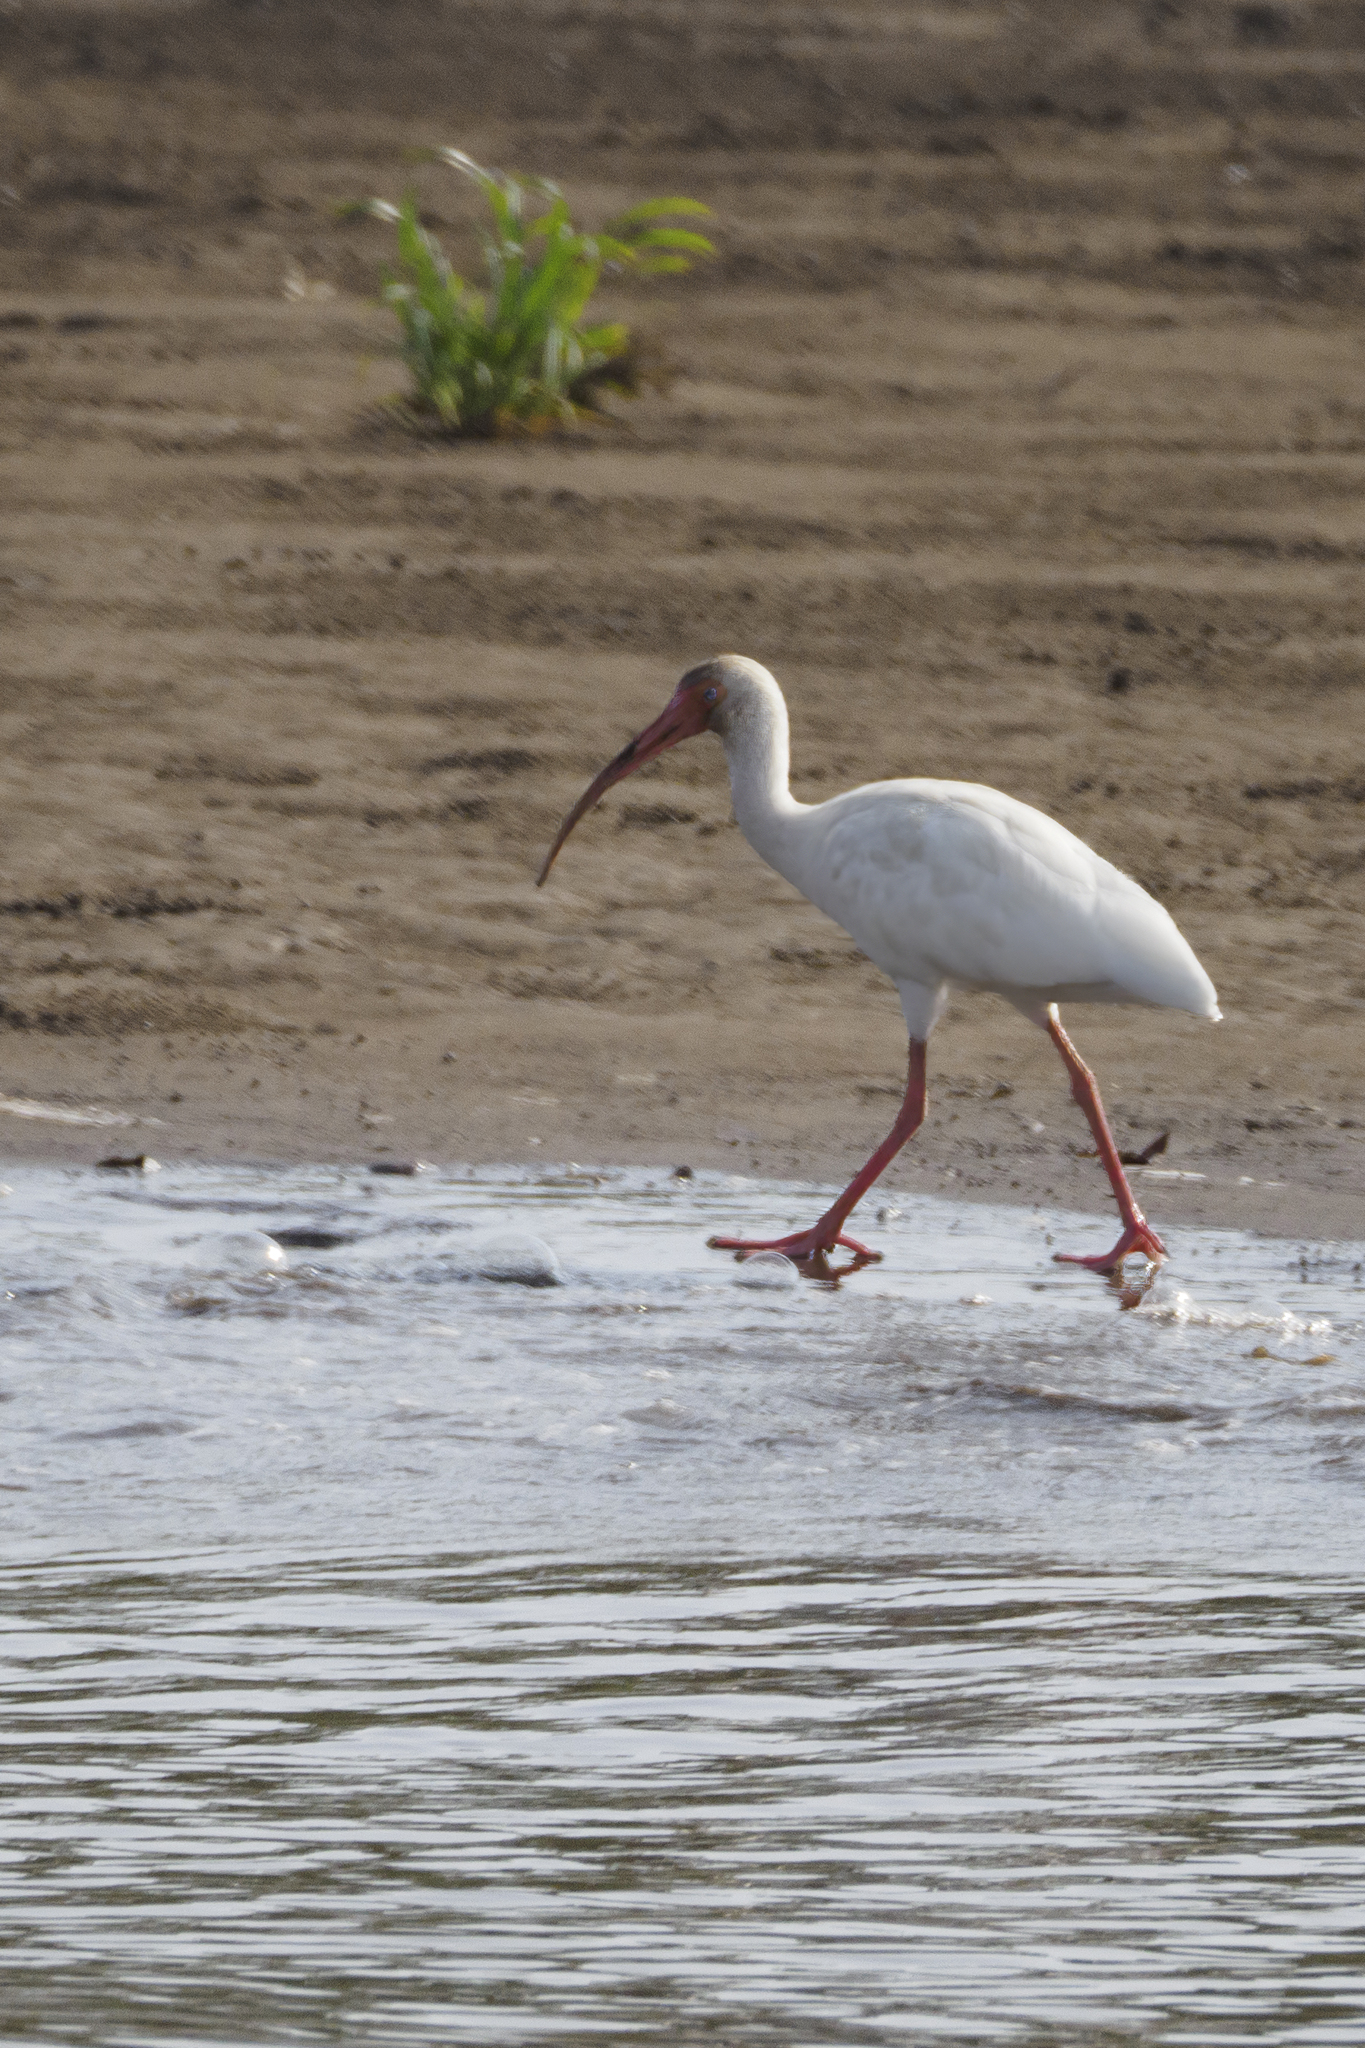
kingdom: Animalia
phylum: Chordata
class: Aves
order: Pelecaniformes
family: Threskiornithidae
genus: Eudocimus
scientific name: Eudocimus albus
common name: White ibis
